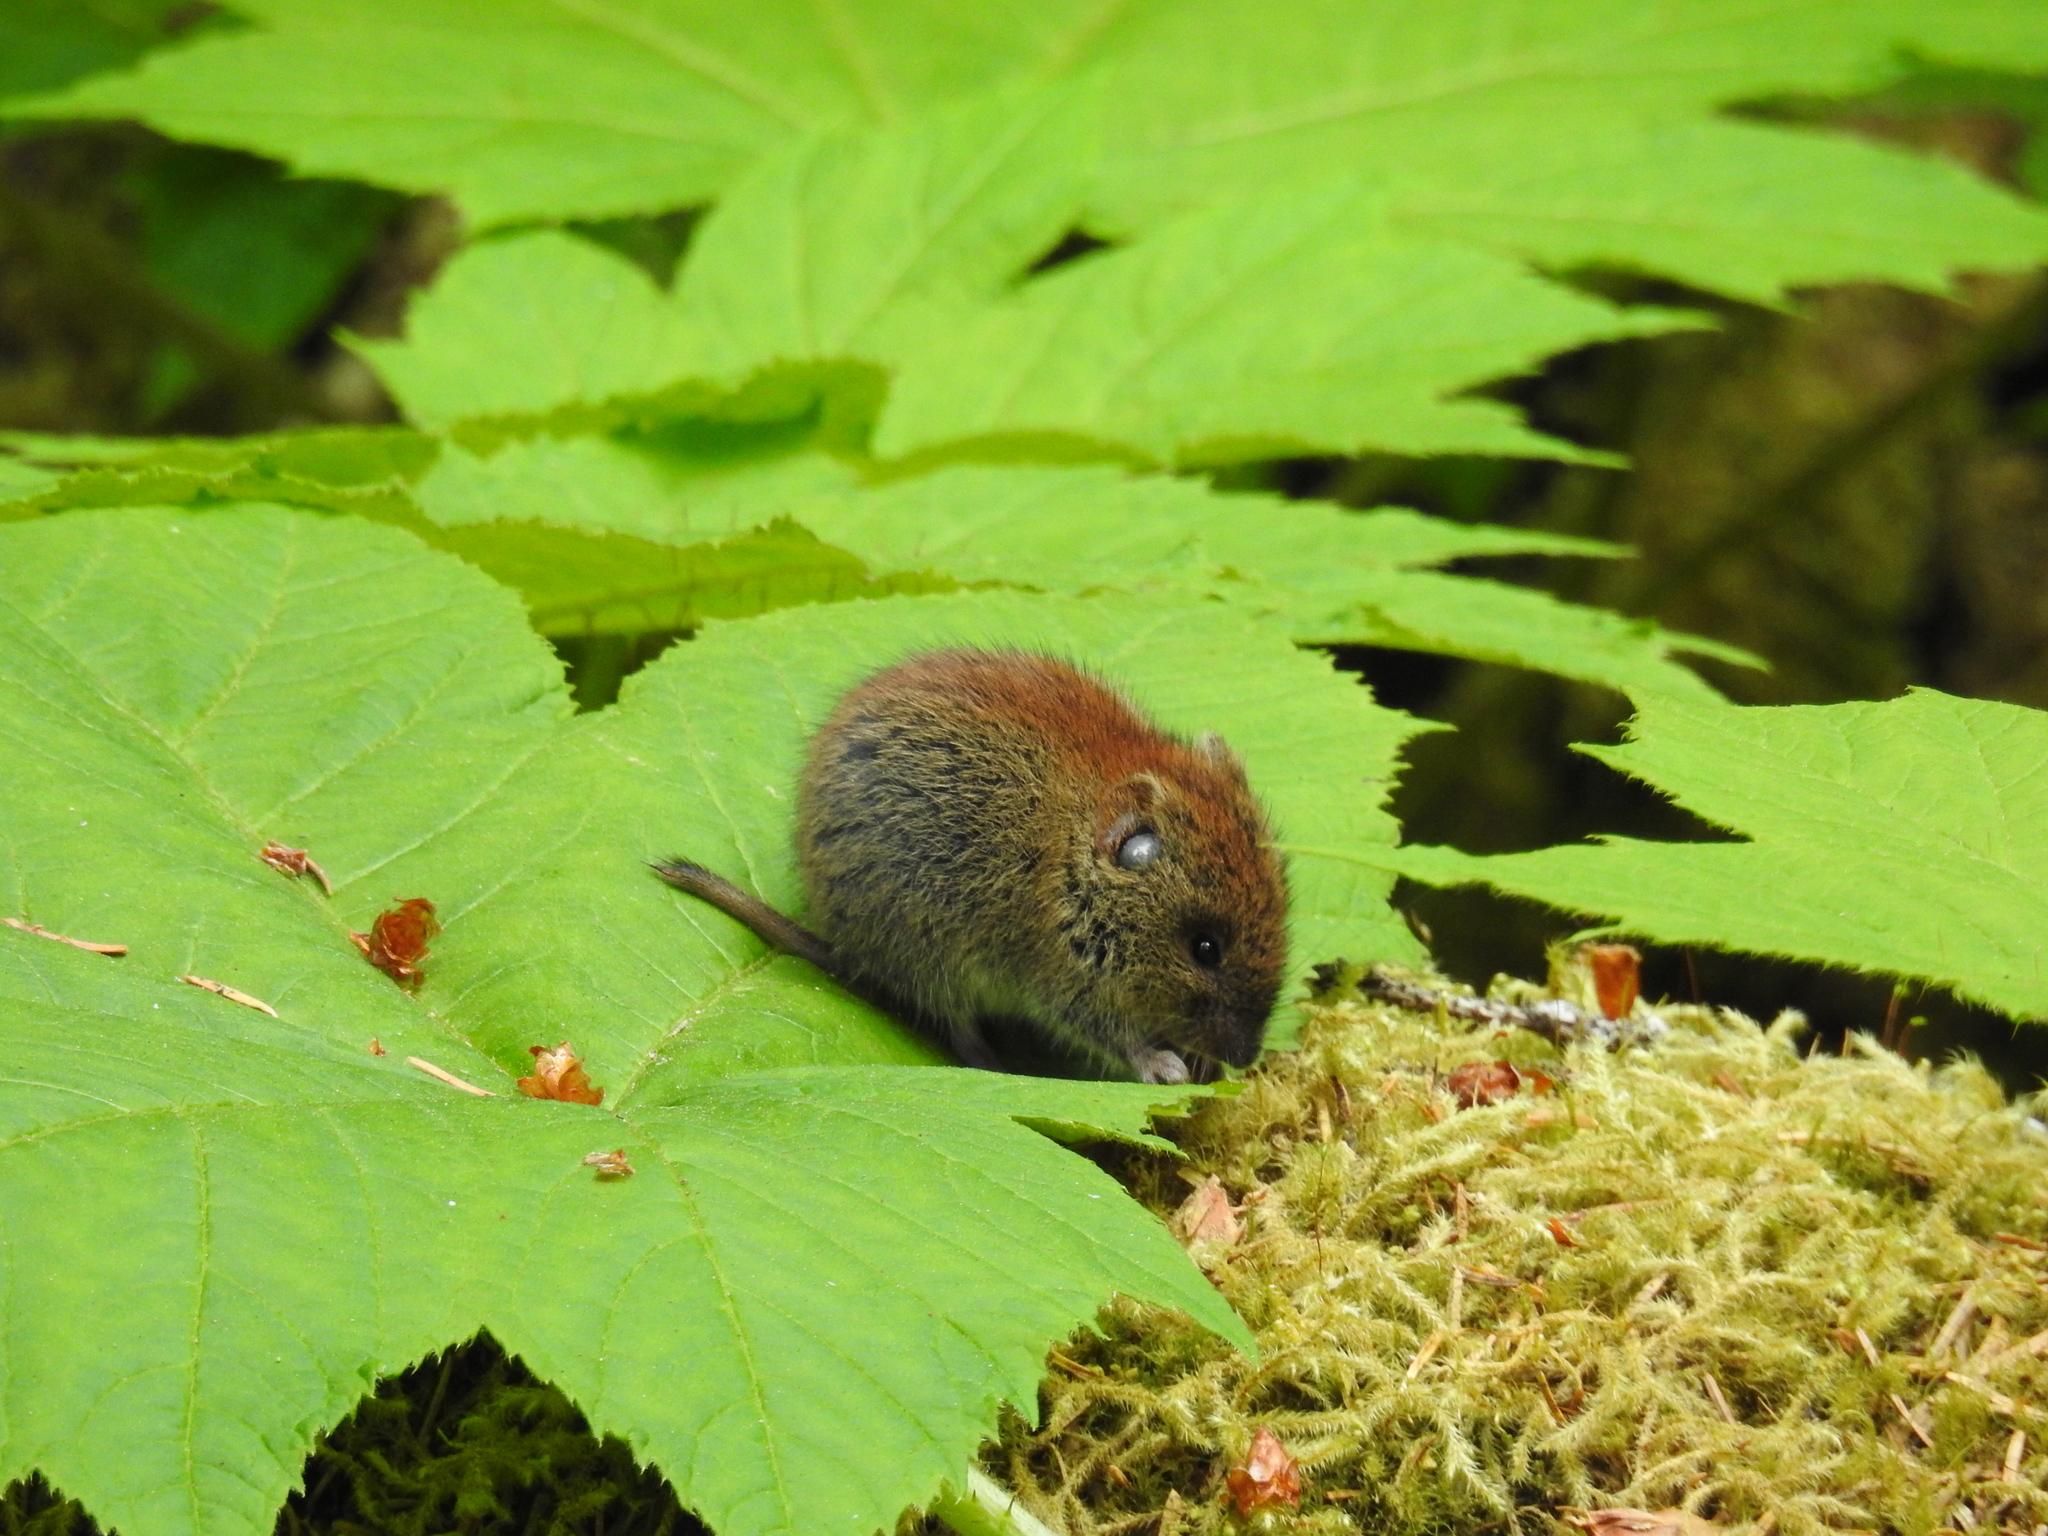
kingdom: Animalia
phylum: Chordata
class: Mammalia
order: Rodentia
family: Cricetidae
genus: Myodes
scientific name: Myodes rutilus
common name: Northern red-backed vole
